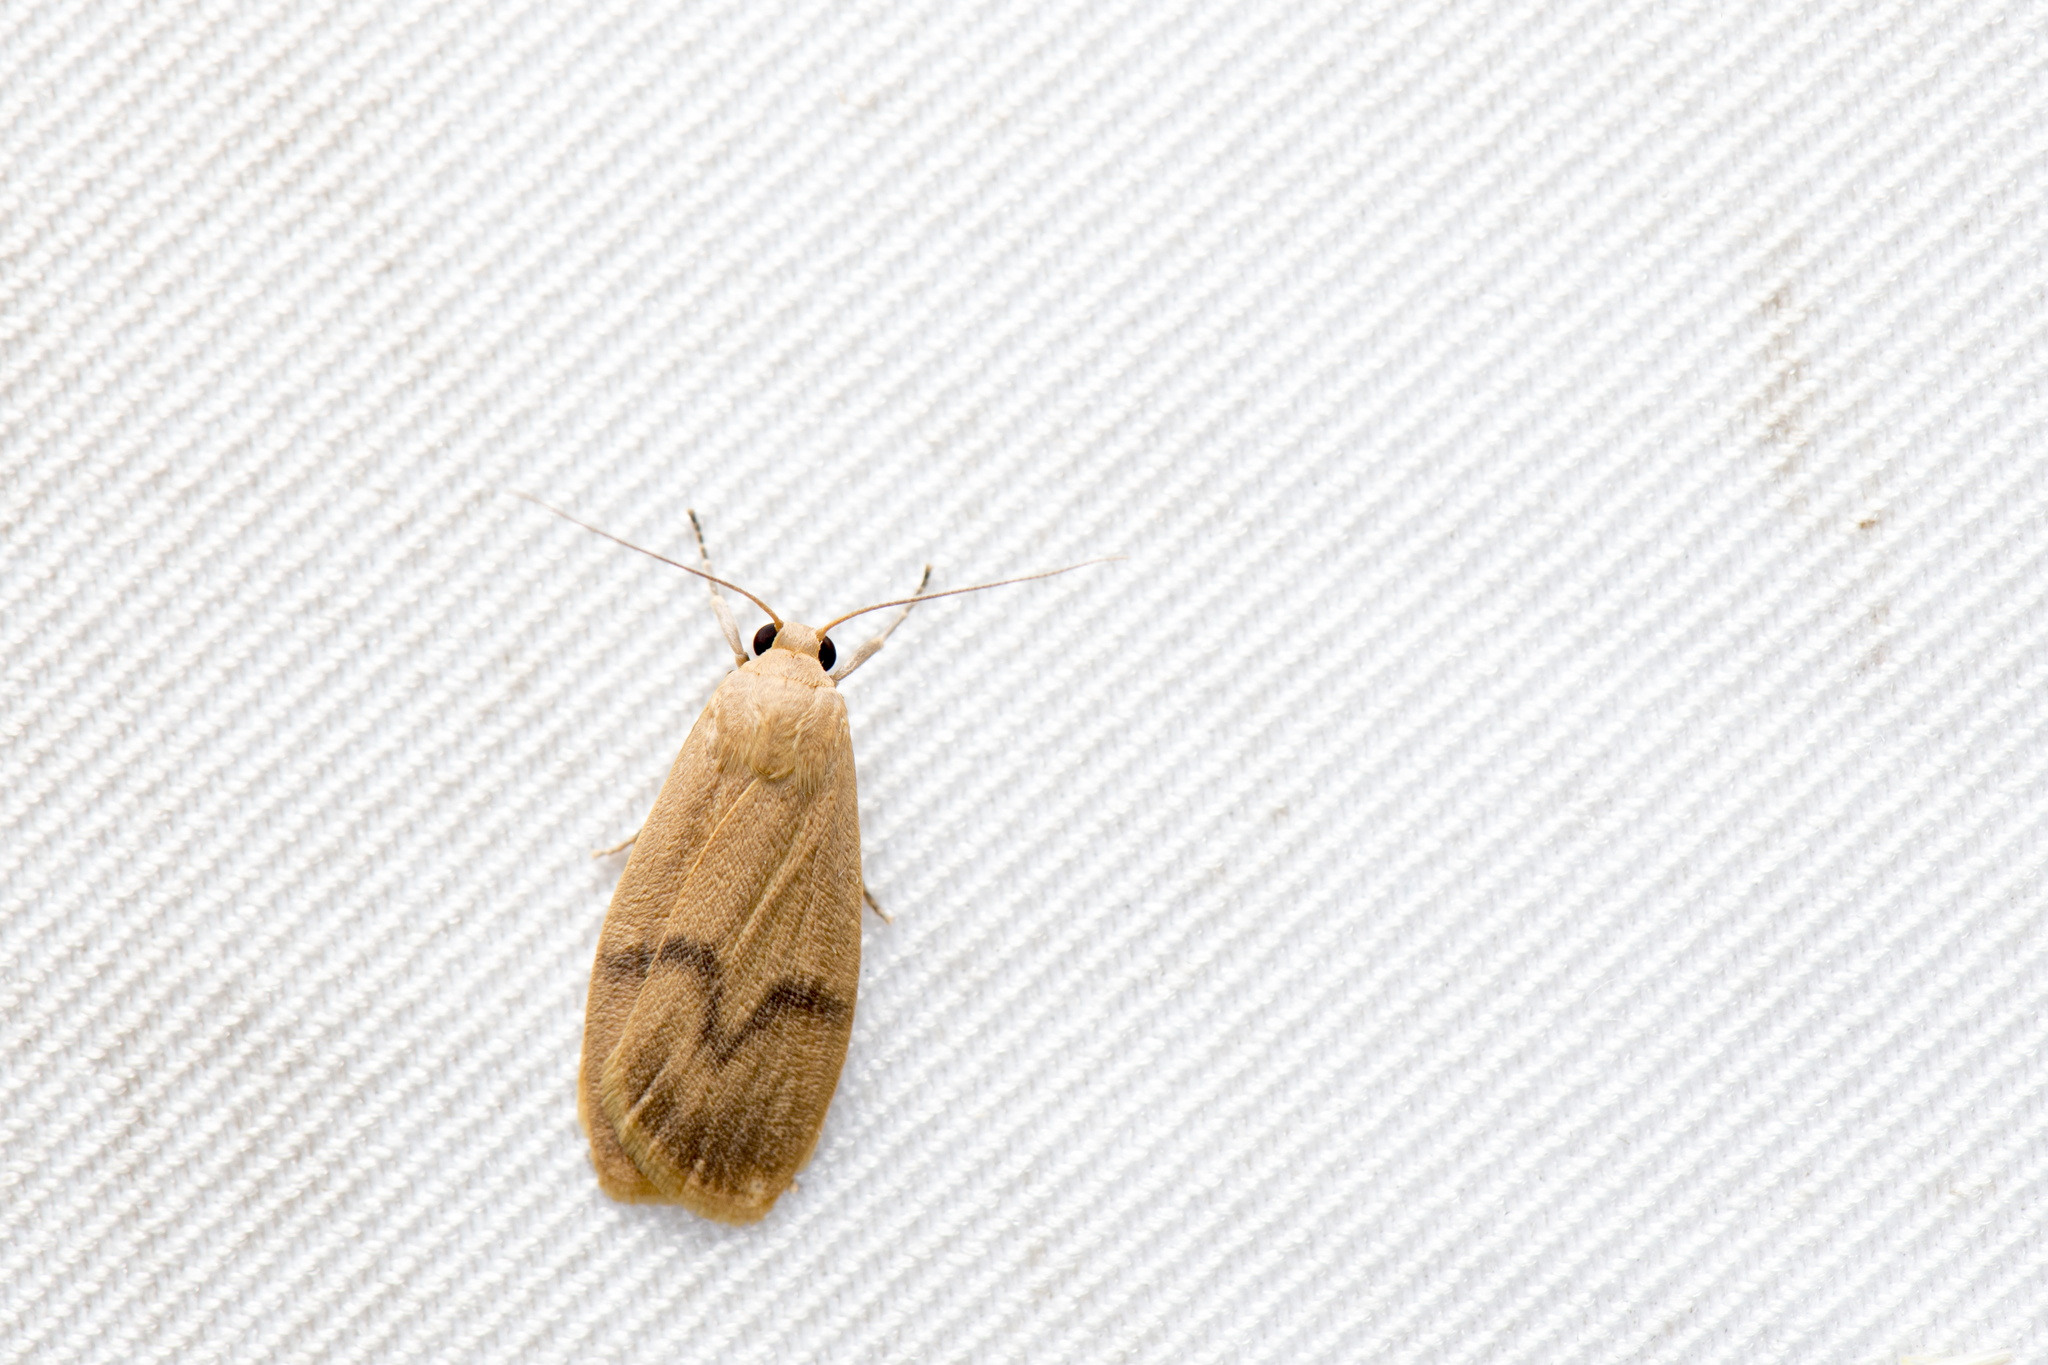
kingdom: Animalia
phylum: Arthropoda
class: Insecta
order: Lepidoptera
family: Erebidae
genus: Teuloma
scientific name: Teuloma tainebula
